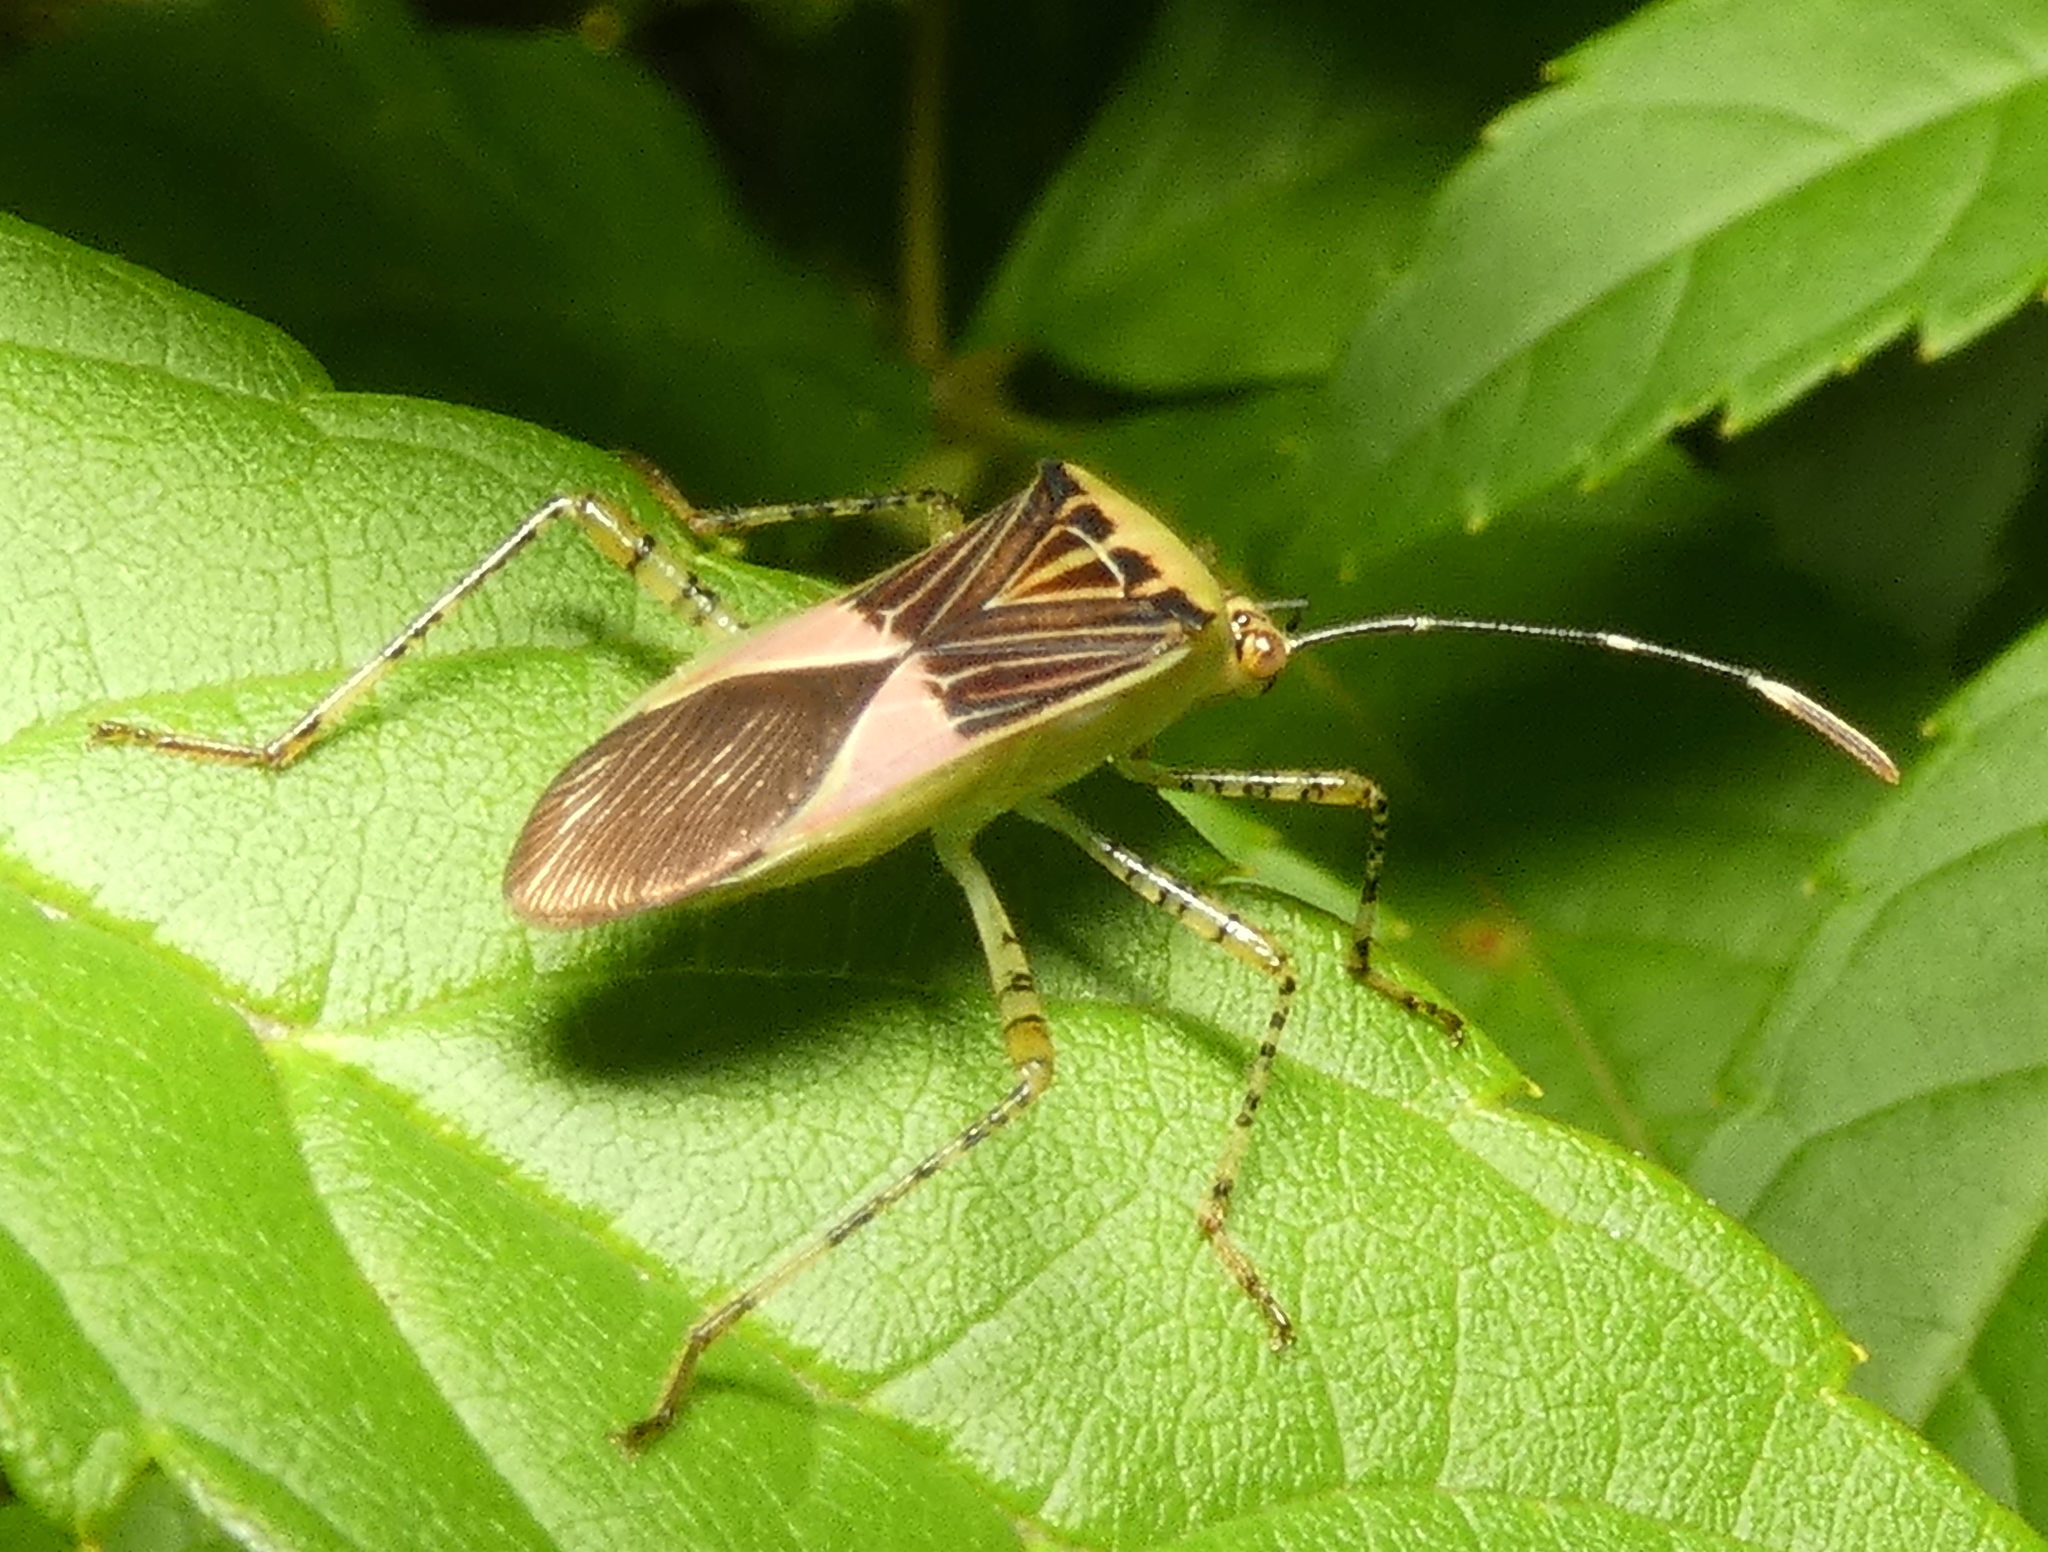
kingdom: Animalia
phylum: Arthropoda
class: Insecta
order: Hemiptera
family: Coreidae
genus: Hypselonotus
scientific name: Hypselonotus fulvus
